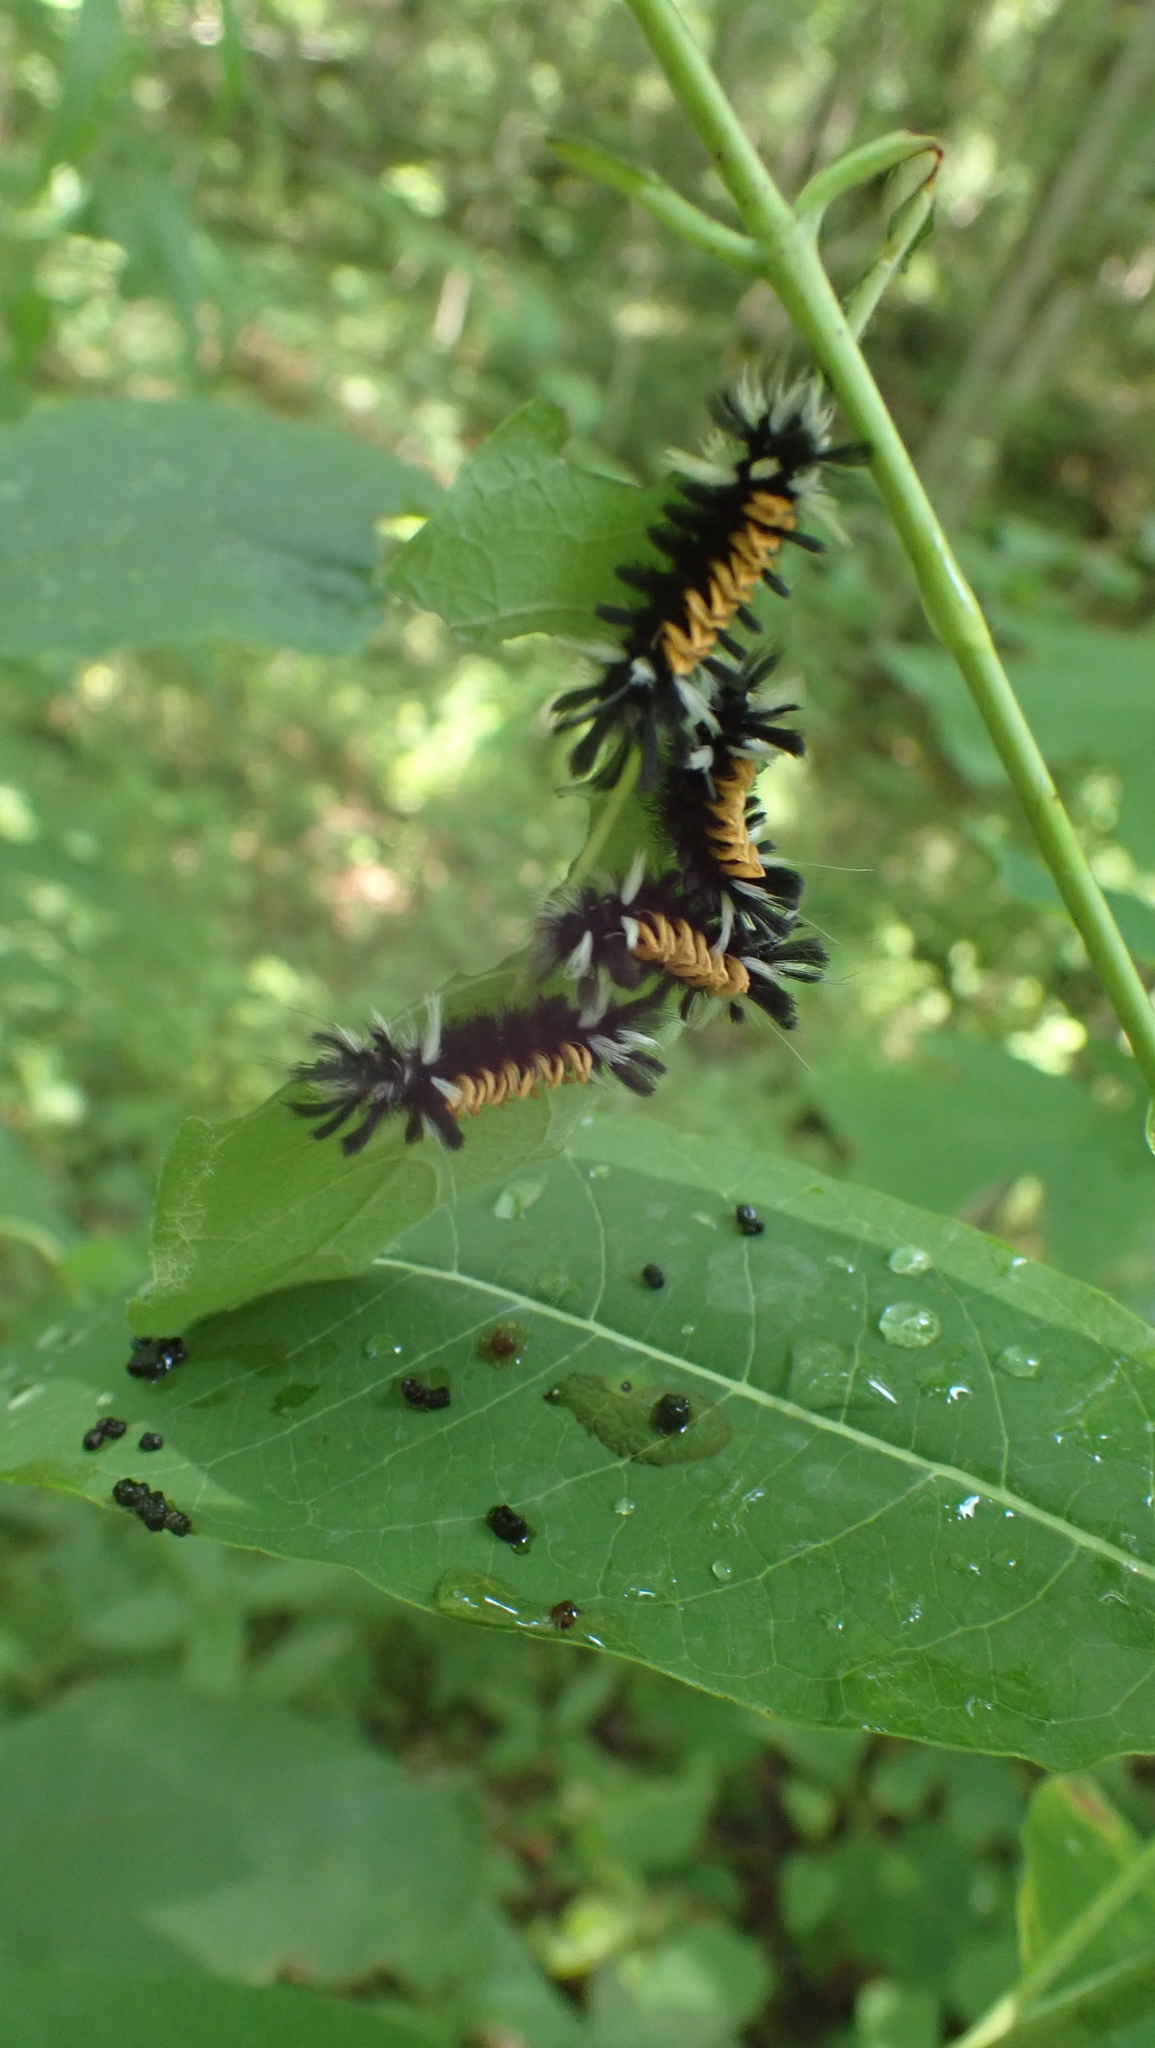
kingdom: Animalia
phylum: Arthropoda
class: Insecta
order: Lepidoptera
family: Erebidae
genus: Euchaetes
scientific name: Euchaetes egle
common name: Milkweed tussock moth
